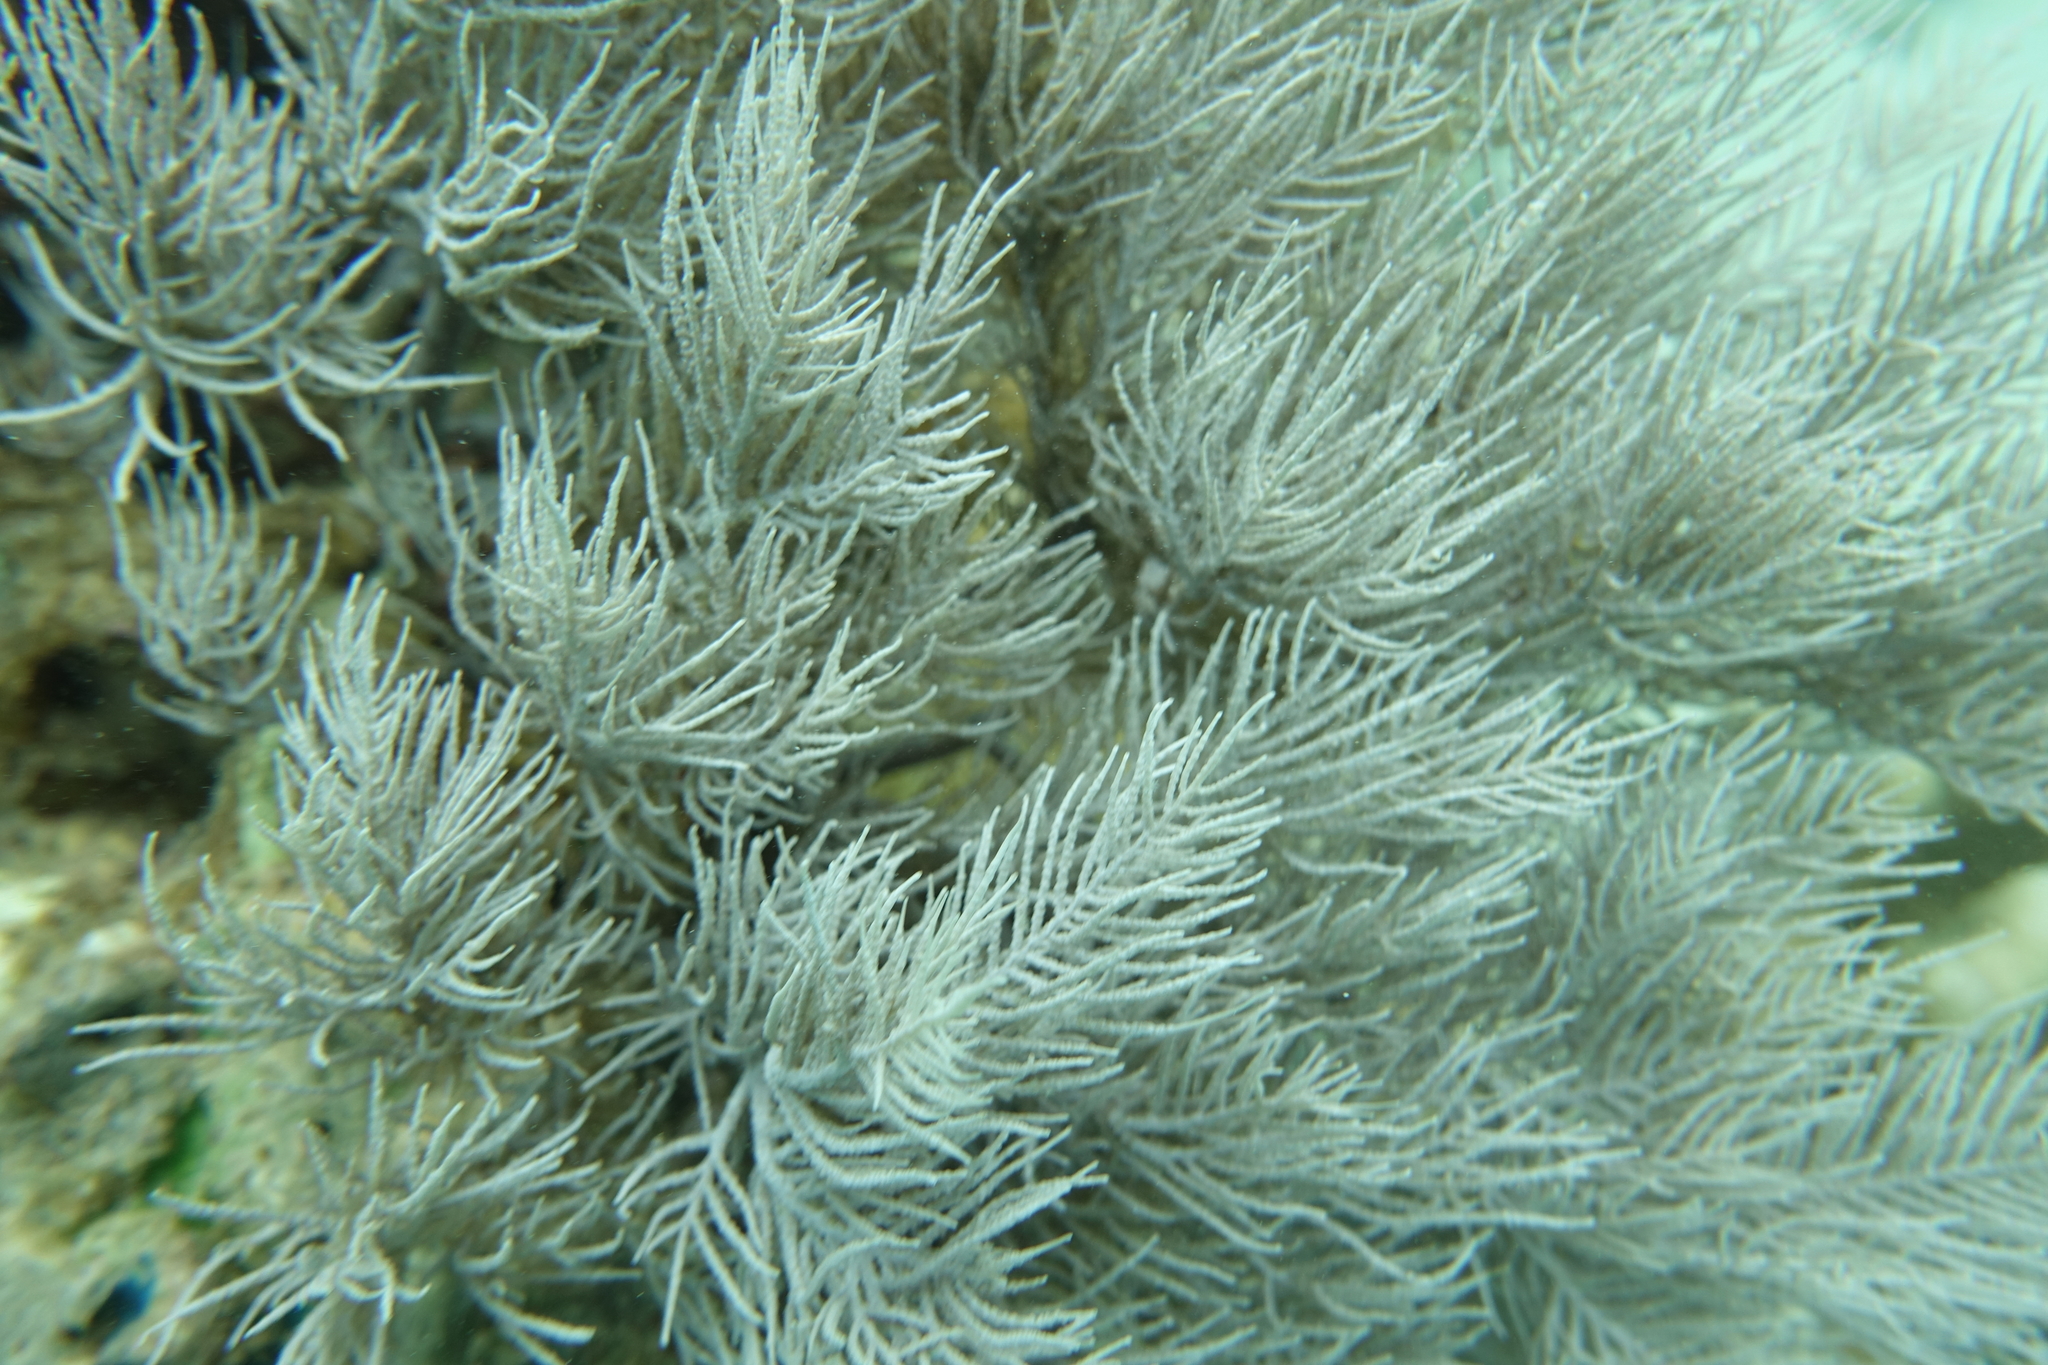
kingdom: Animalia
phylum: Cnidaria
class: Anthozoa
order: Scleralcyonacea
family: Ifalukellidae
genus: Plumigorgia
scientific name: Plumigorgia hydroides
